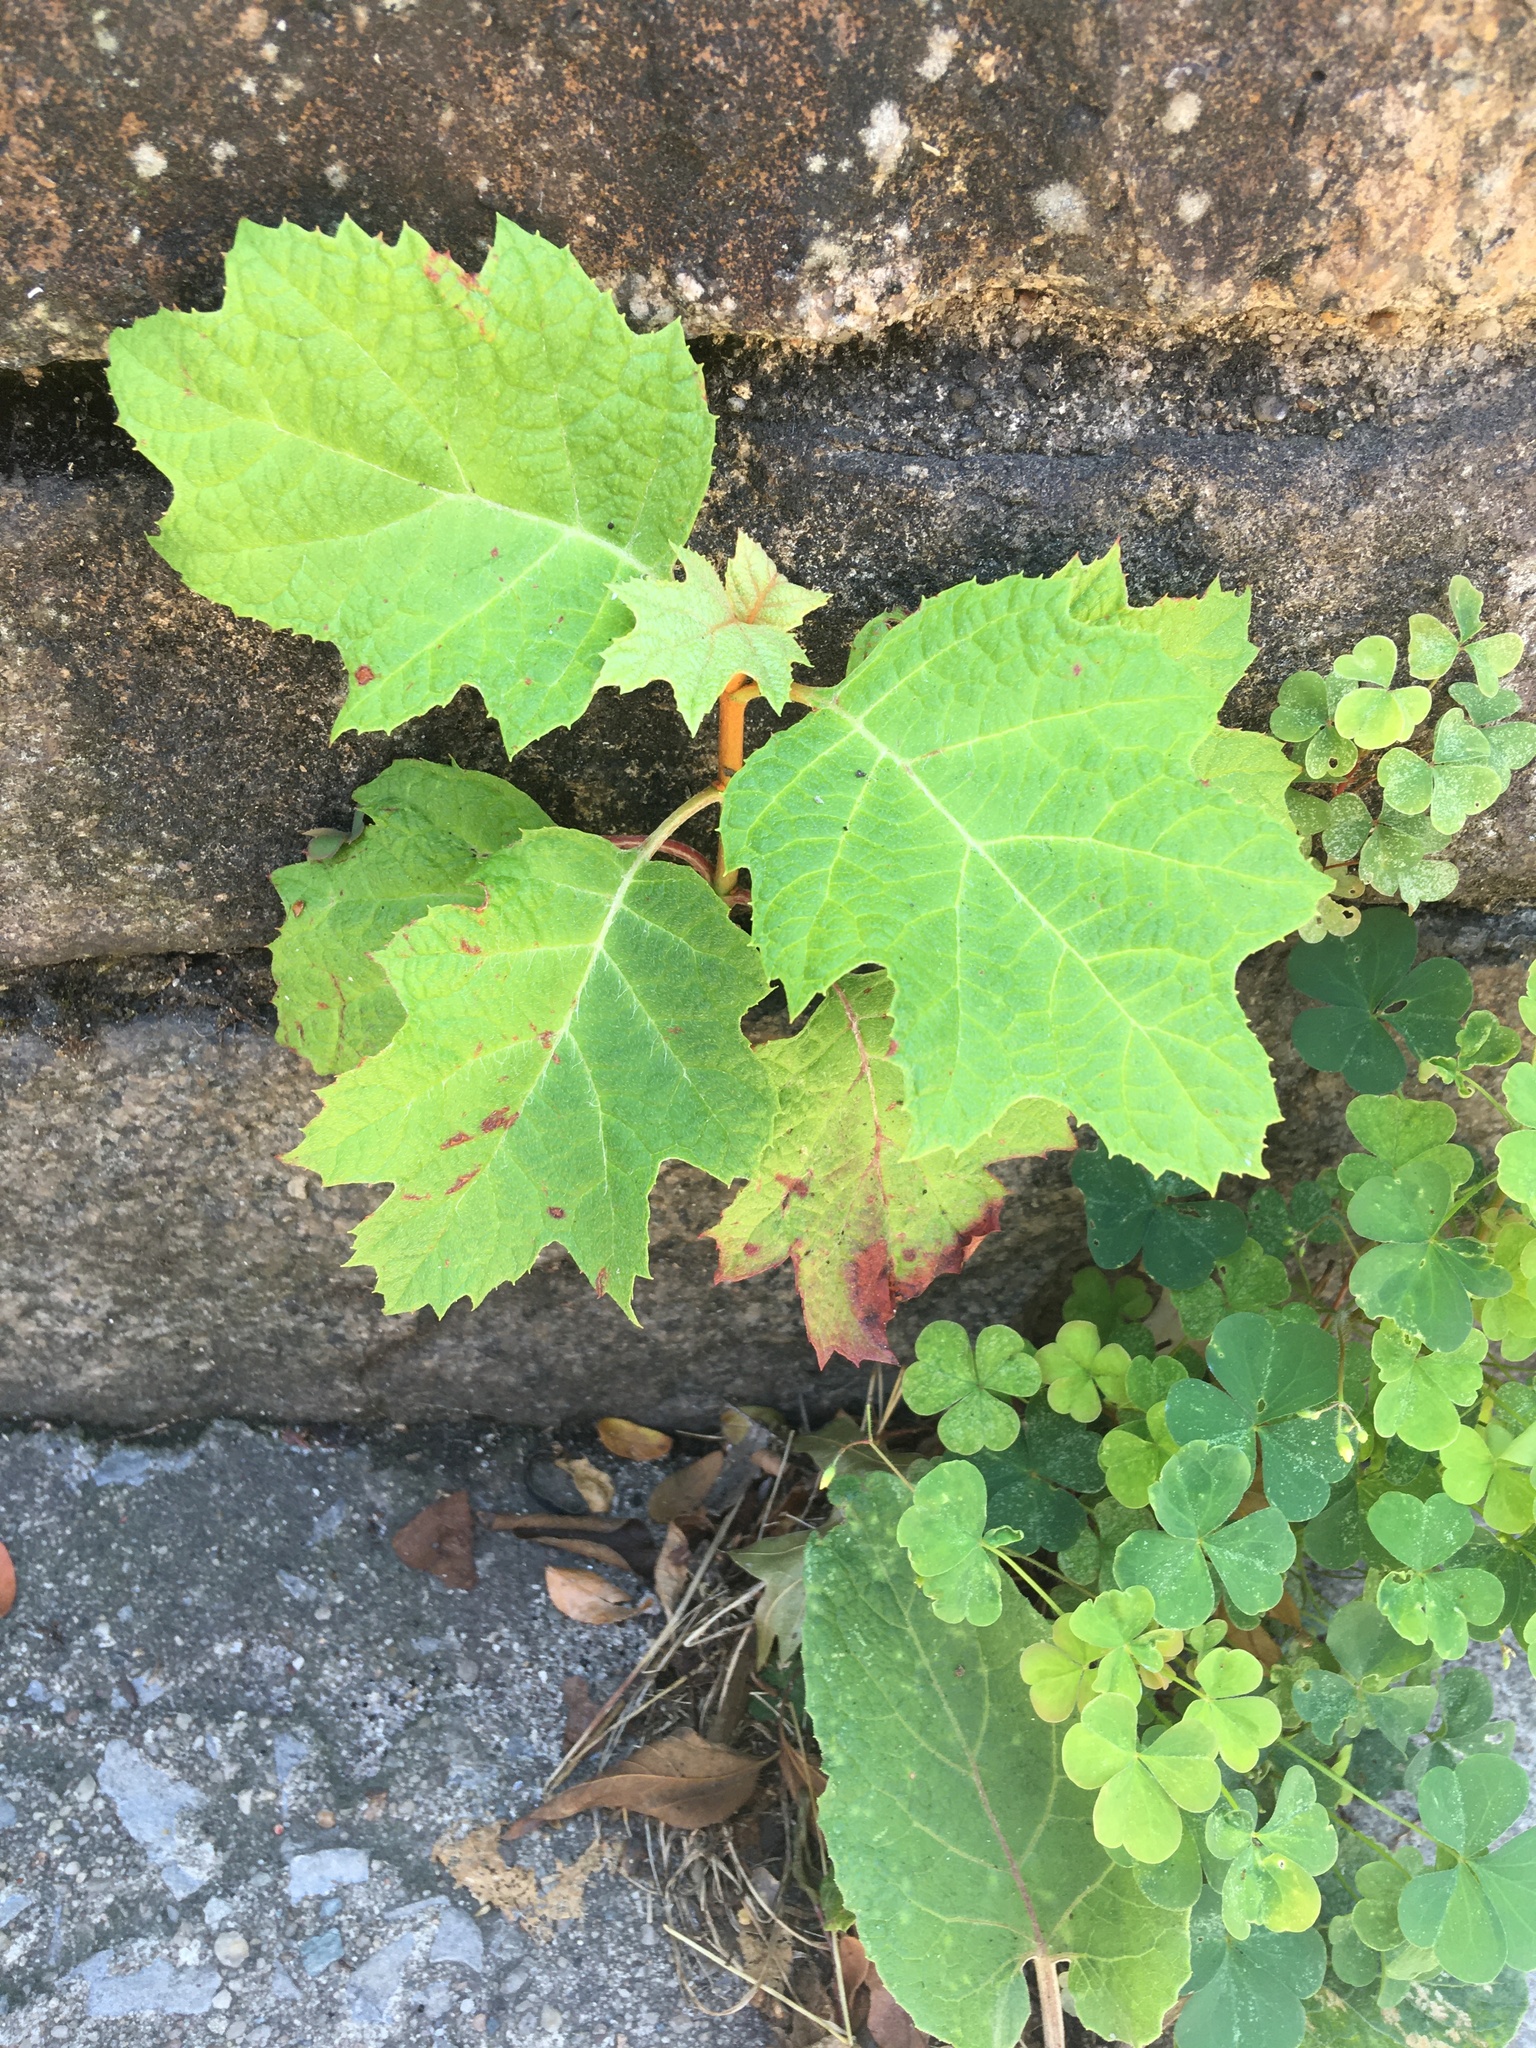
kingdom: Plantae
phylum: Tracheophyta
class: Magnoliopsida
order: Cornales
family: Hydrangeaceae
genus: Hydrangea
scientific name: Hydrangea quercifolia
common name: Oak-leaf hydrangea
